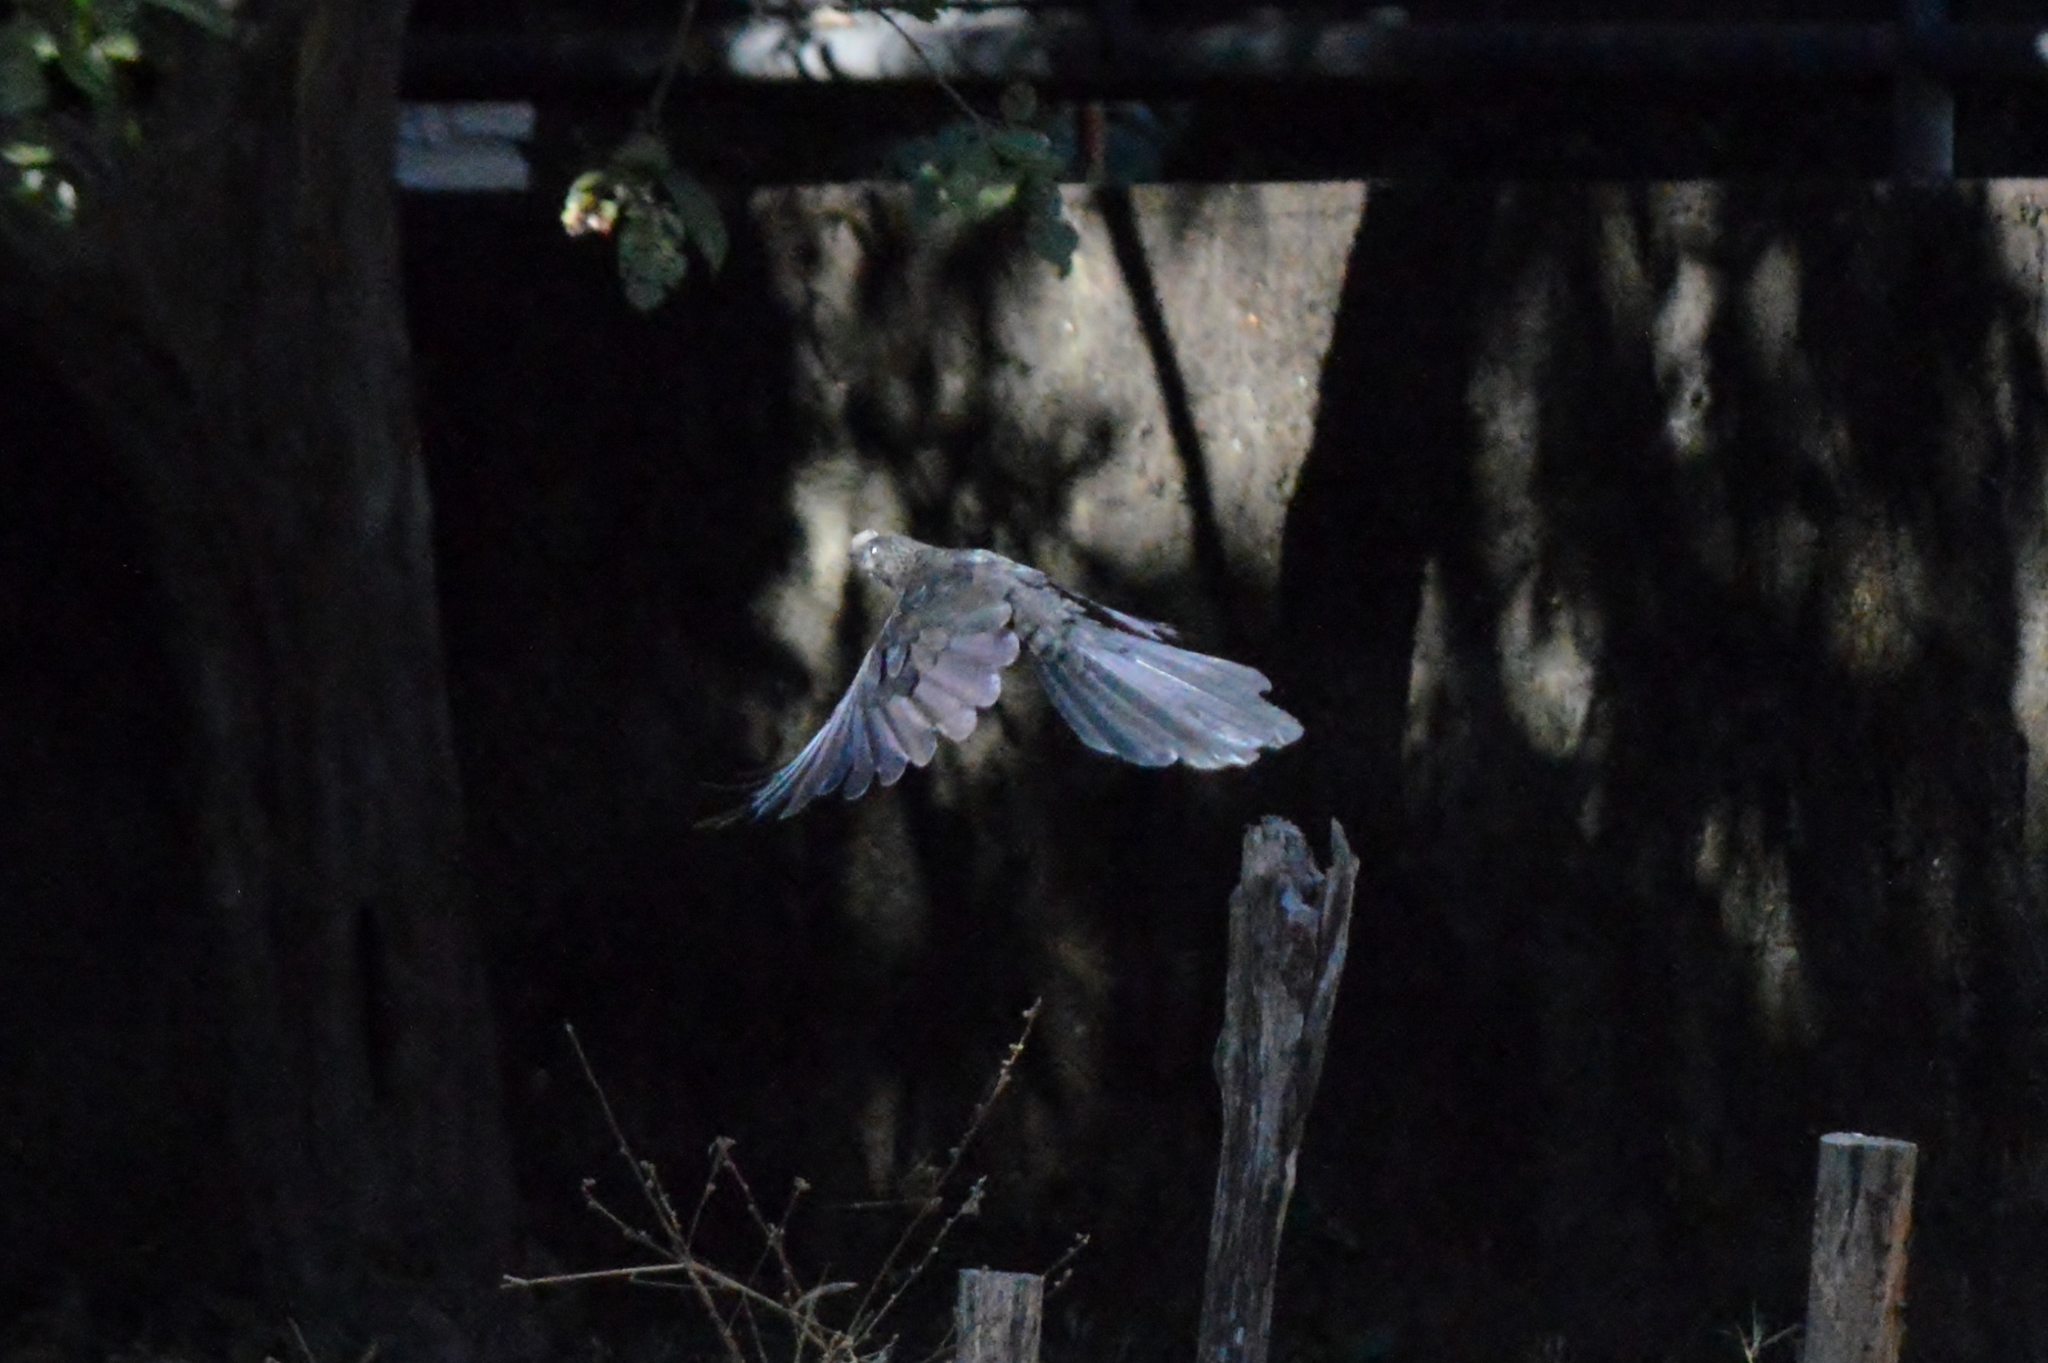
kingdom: Animalia
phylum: Chordata
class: Aves
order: Cuculiformes
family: Cuculidae
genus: Crotophaga
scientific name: Crotophaga ani
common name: Smooth-billed ani
